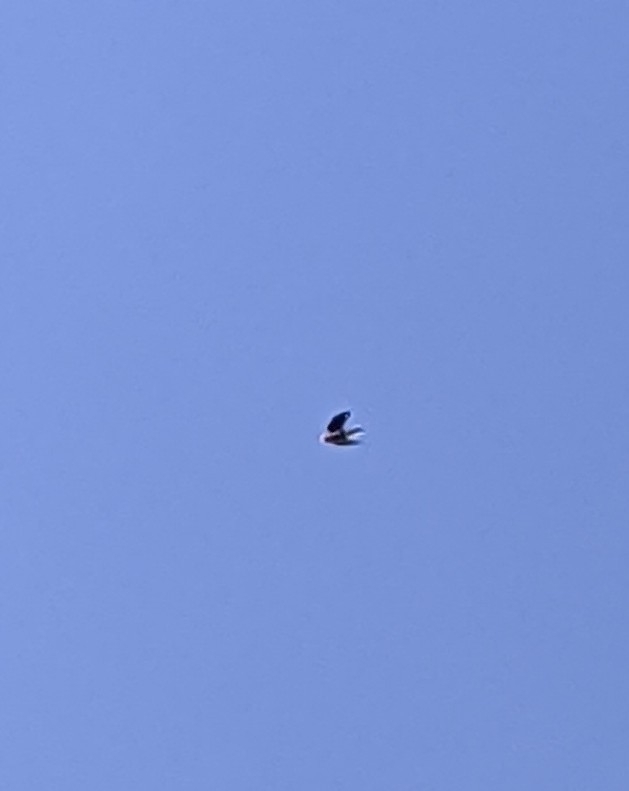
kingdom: Animalia
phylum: Chordata
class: Aves
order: Passeriformes
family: Corvidae
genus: Nucifraga
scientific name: Nucifraga columbiana
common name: Clark's nutcracker
